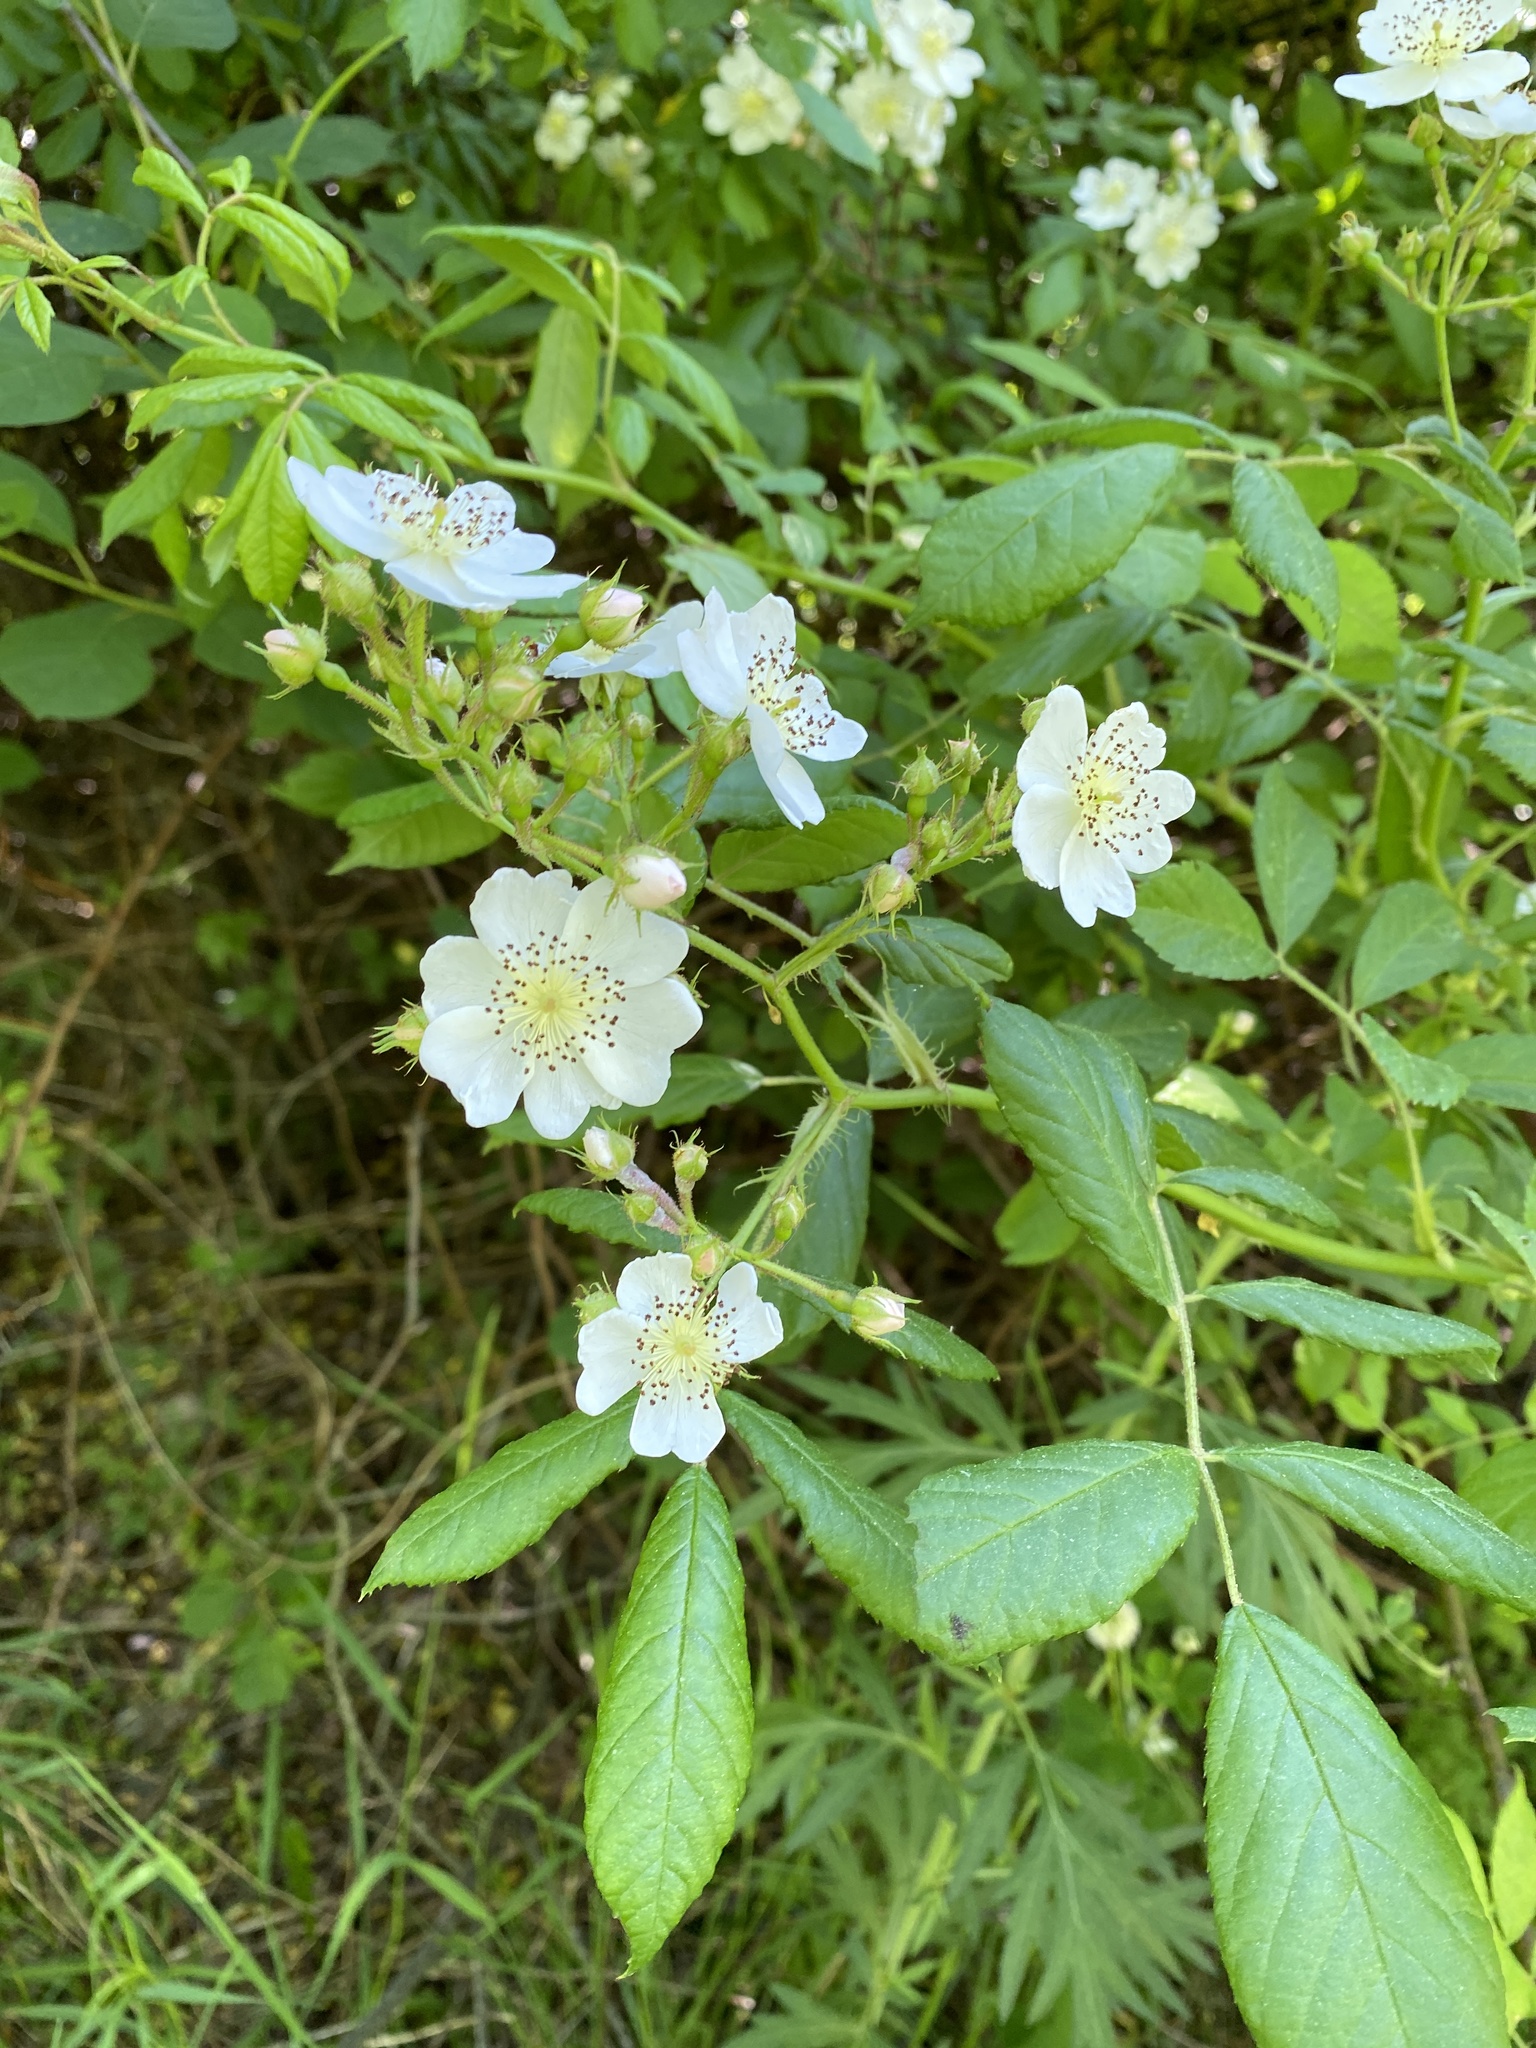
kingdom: Plantae
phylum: Tracheophyta
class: Magnoliopsida
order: Rosales
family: Rosaceae
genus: Rosa
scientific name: Rosa multiflora
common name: Multiflora rose
